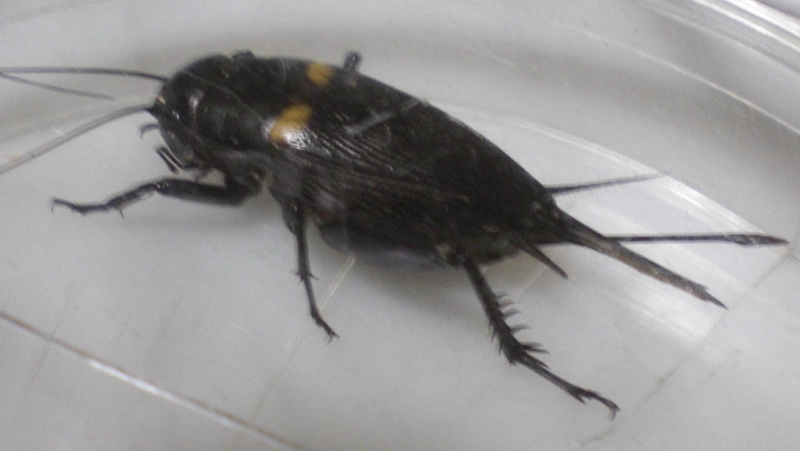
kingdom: Animalia
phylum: Arthropoda
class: Insecta
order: Orthoptera
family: Gryllidae
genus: Gryllus
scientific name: Gryllus bimaculatus
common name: Two-spotted cricket
